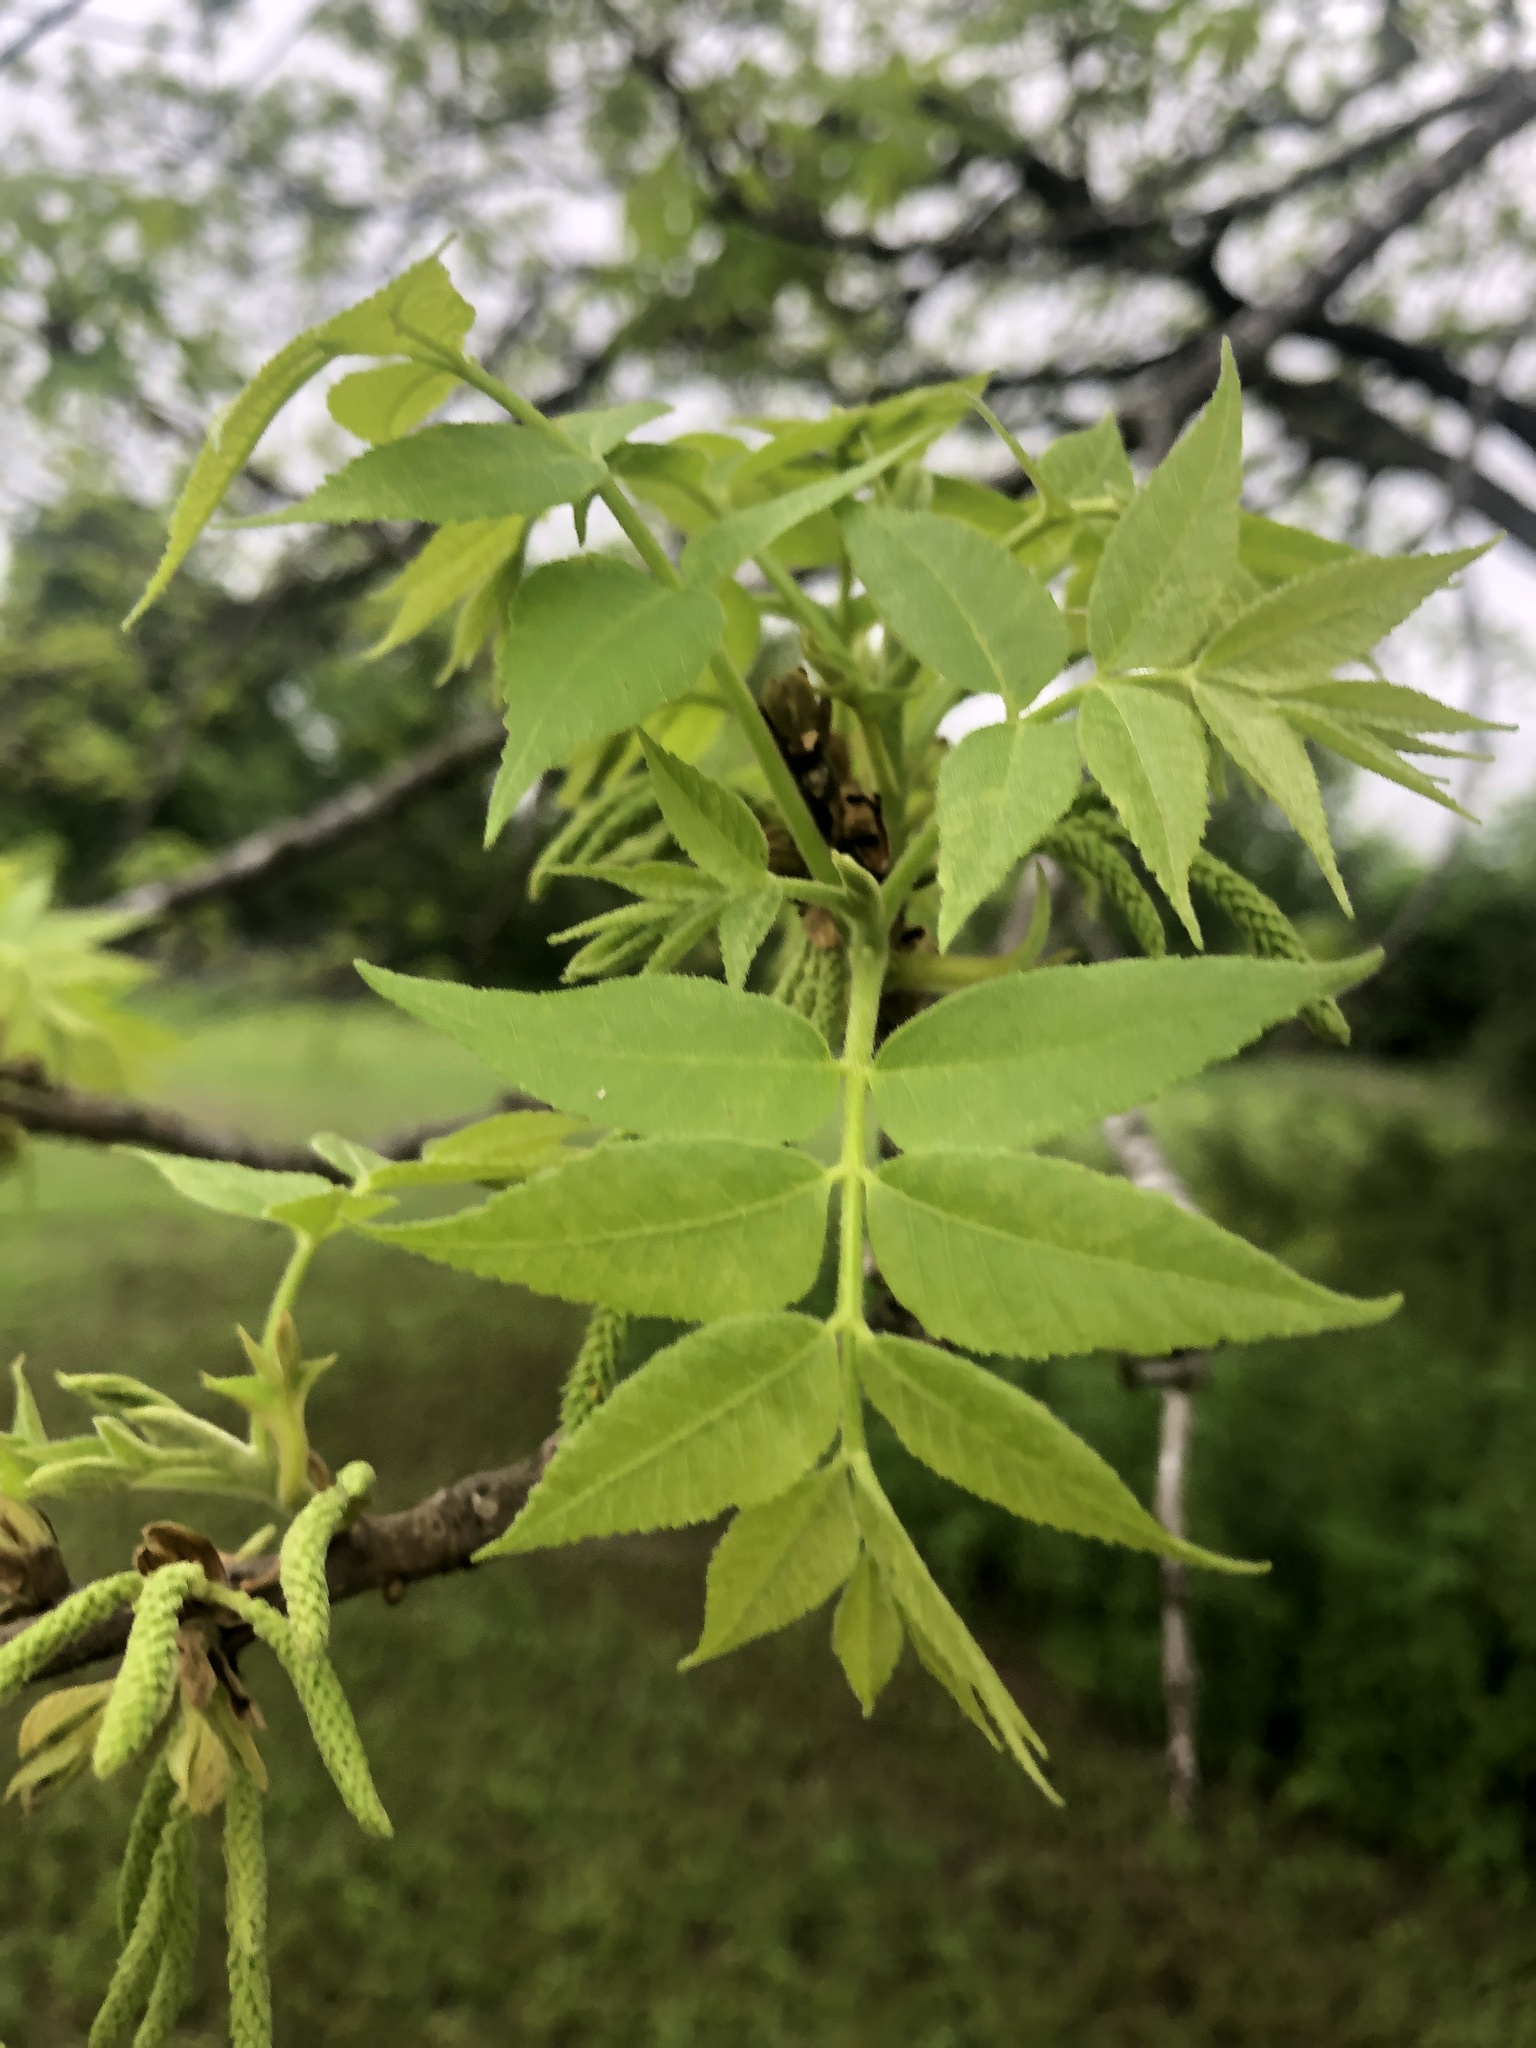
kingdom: Plantae
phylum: Tracheophyta
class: Magnoliopsida
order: Fagales
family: Juglandaceae
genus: Carya
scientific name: Carya illinoinensis
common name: Pecan
